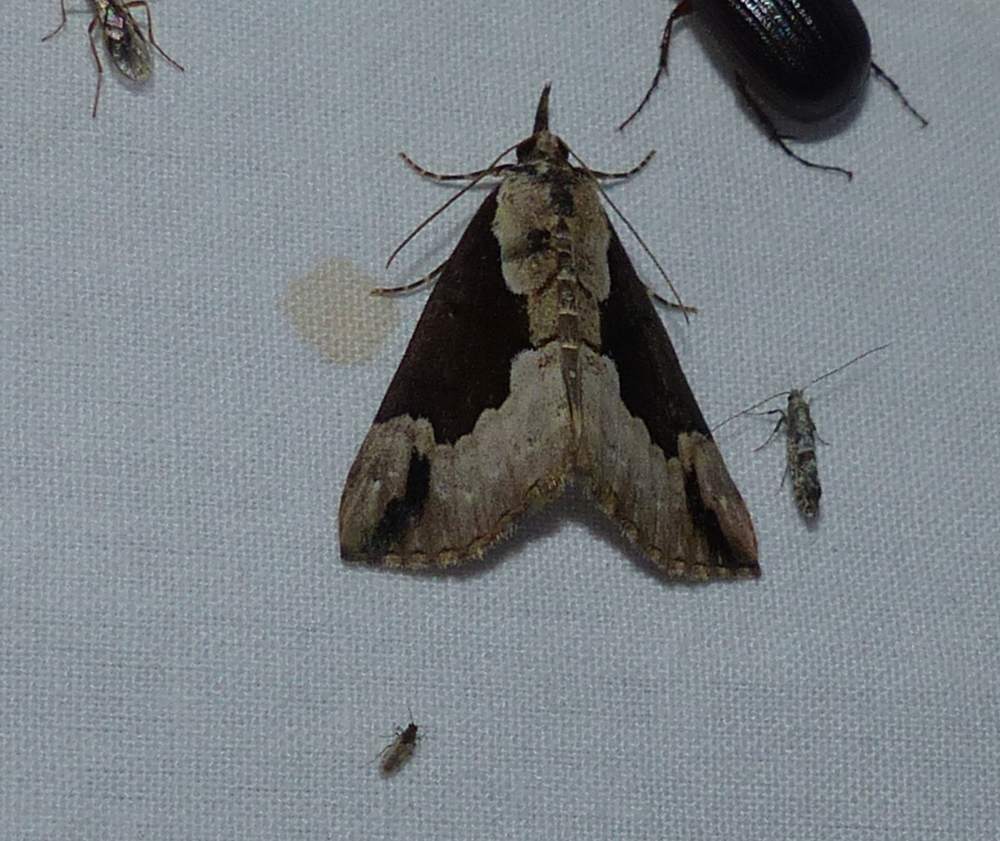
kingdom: Animalia
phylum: Arthropoda
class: Insecta
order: Lepidoptera
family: Erebidae
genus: Hypena
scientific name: Hypena baltimoralis
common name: Baltimore snout
